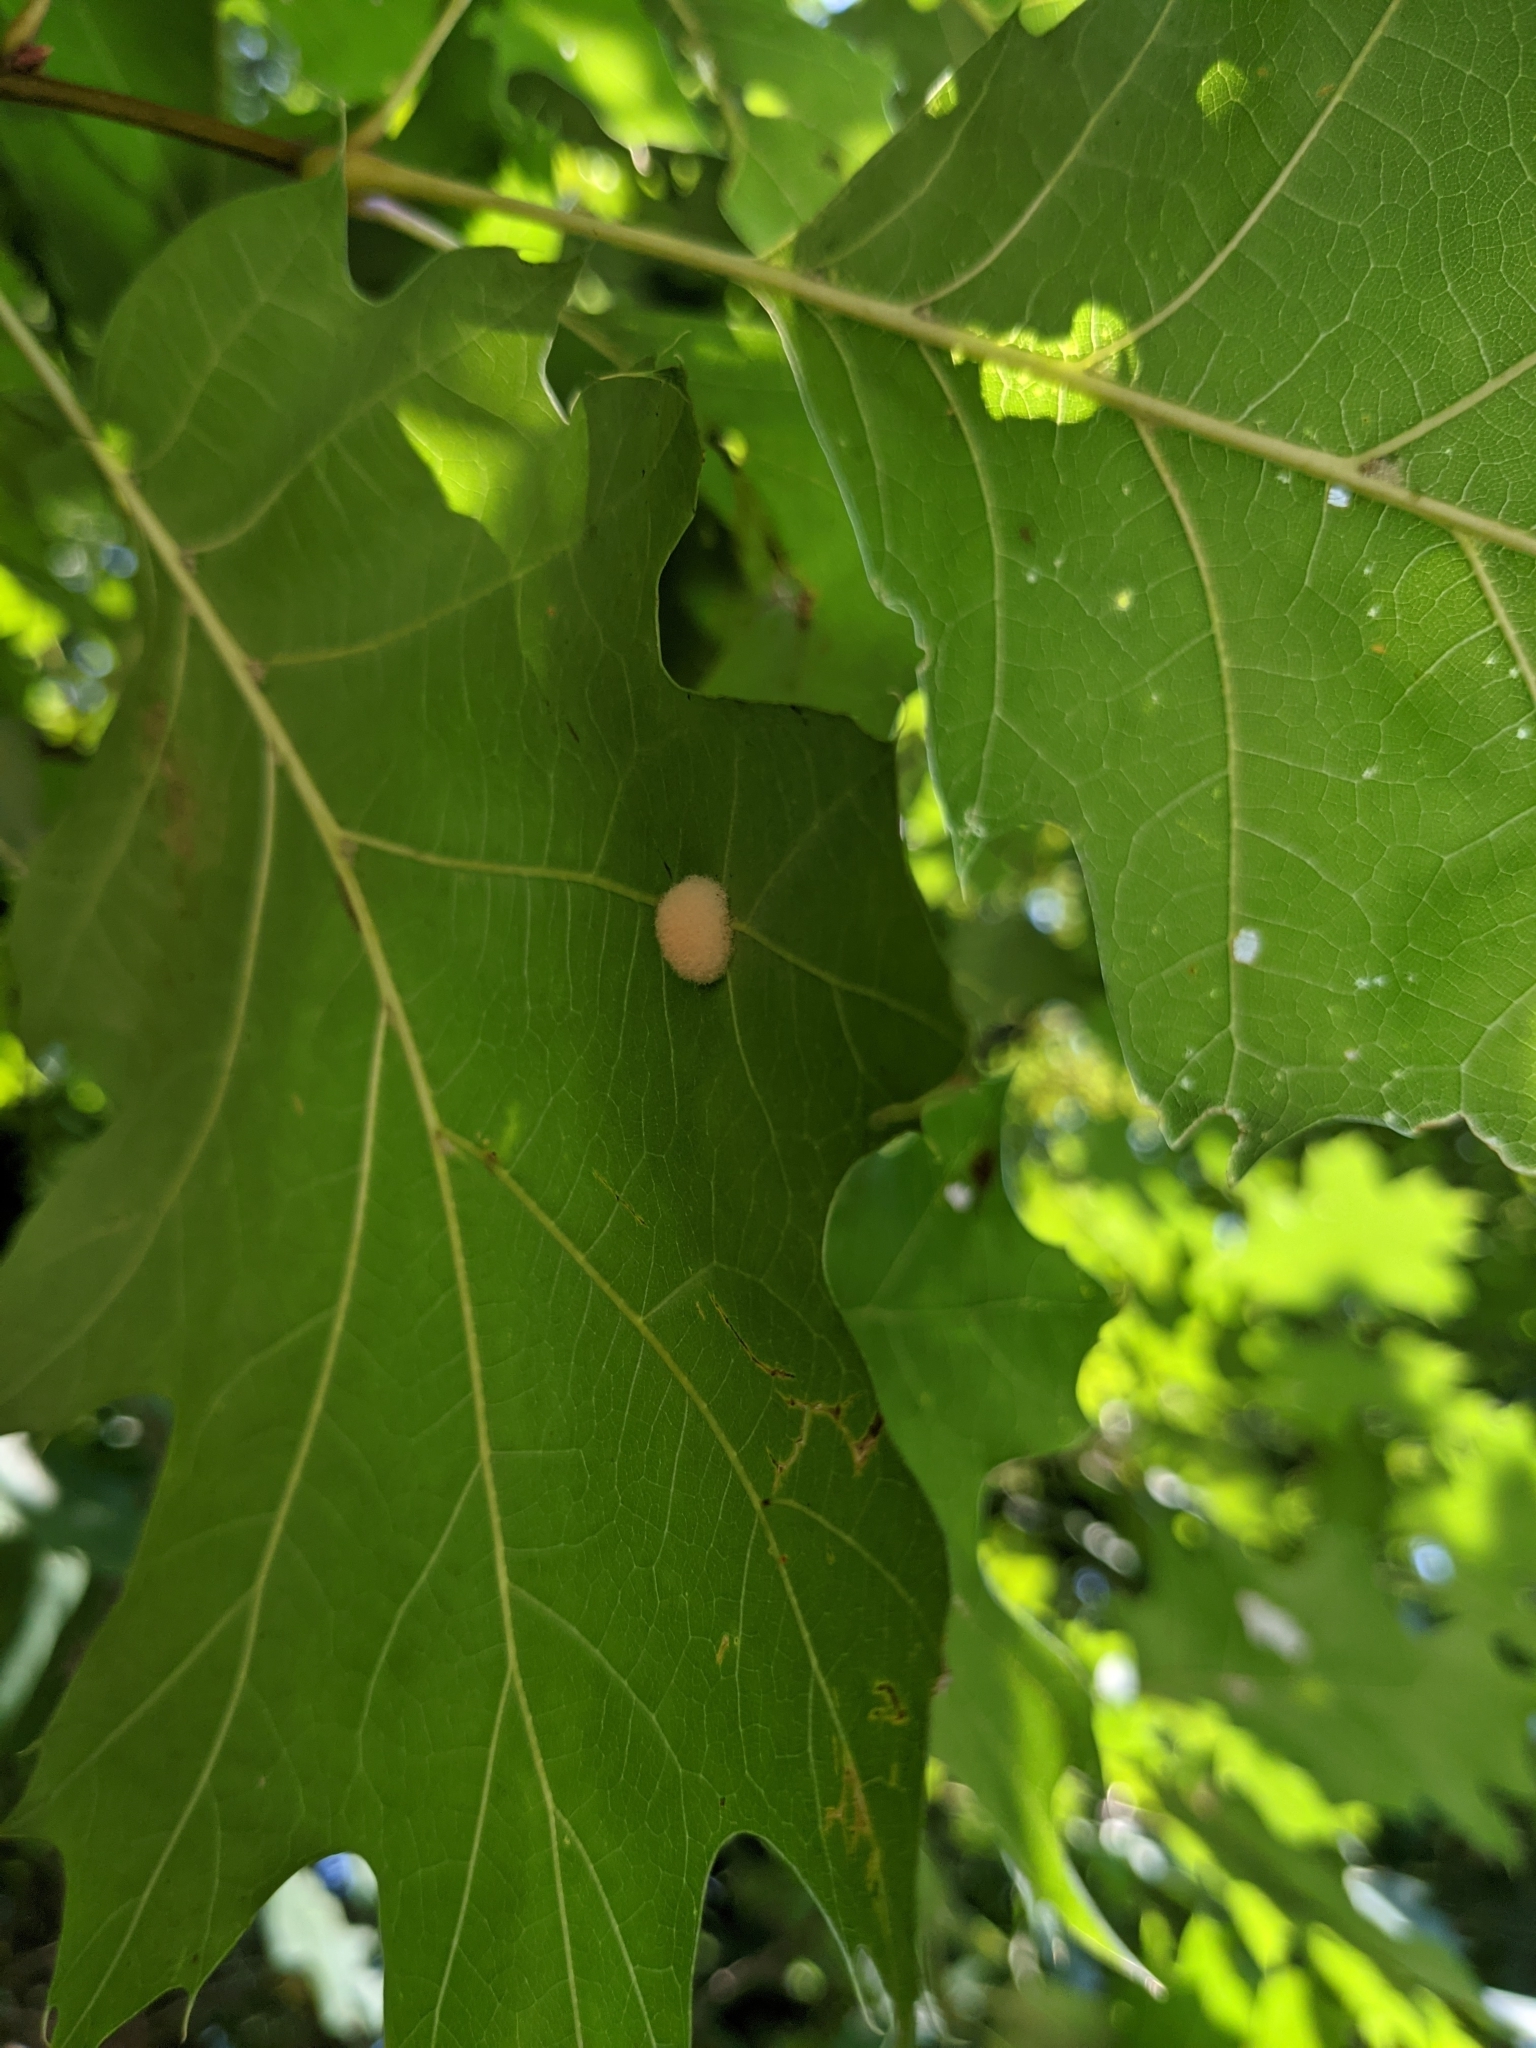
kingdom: Animalia
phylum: Arthropoda
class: Insecta
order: Hymenoptera
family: Cynipidae
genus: Callirhytis
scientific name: Callirhytis
